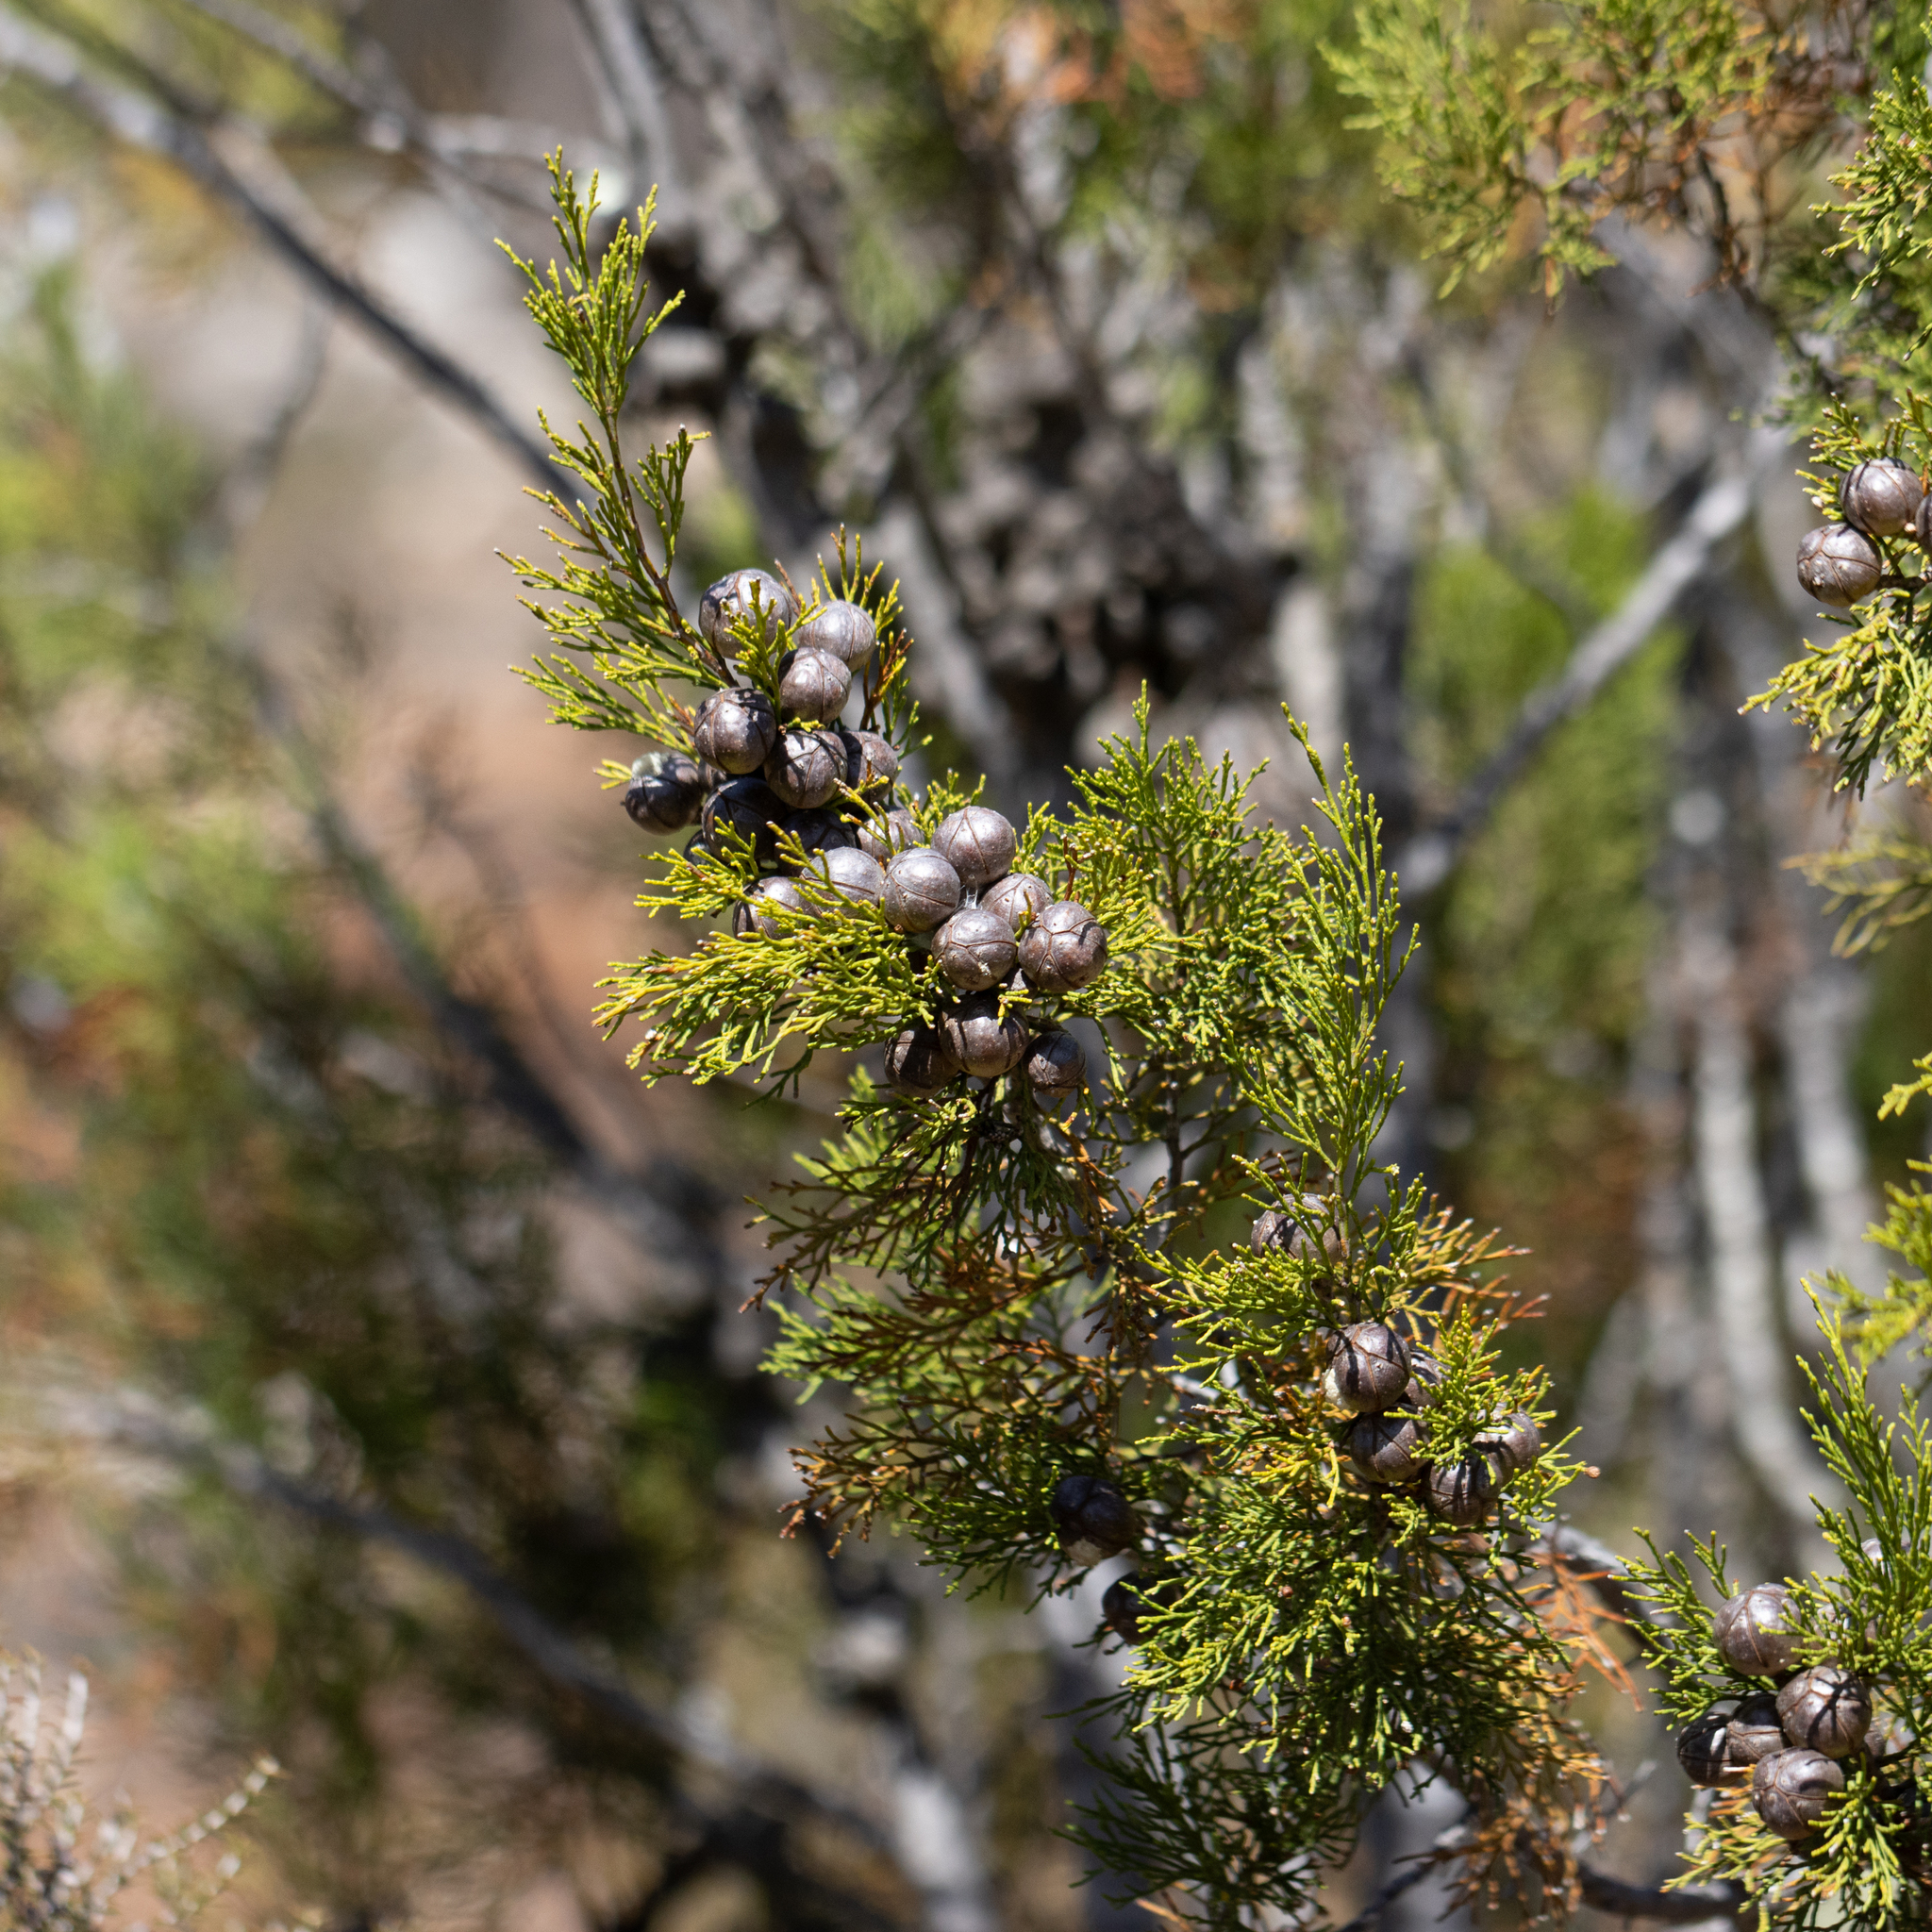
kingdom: Plantae
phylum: Tracheophyta
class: Pinopsida
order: Pinales
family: Cupressaceae
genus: Callitris
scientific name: Callitris canescens
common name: Morrison's cypress-pine
